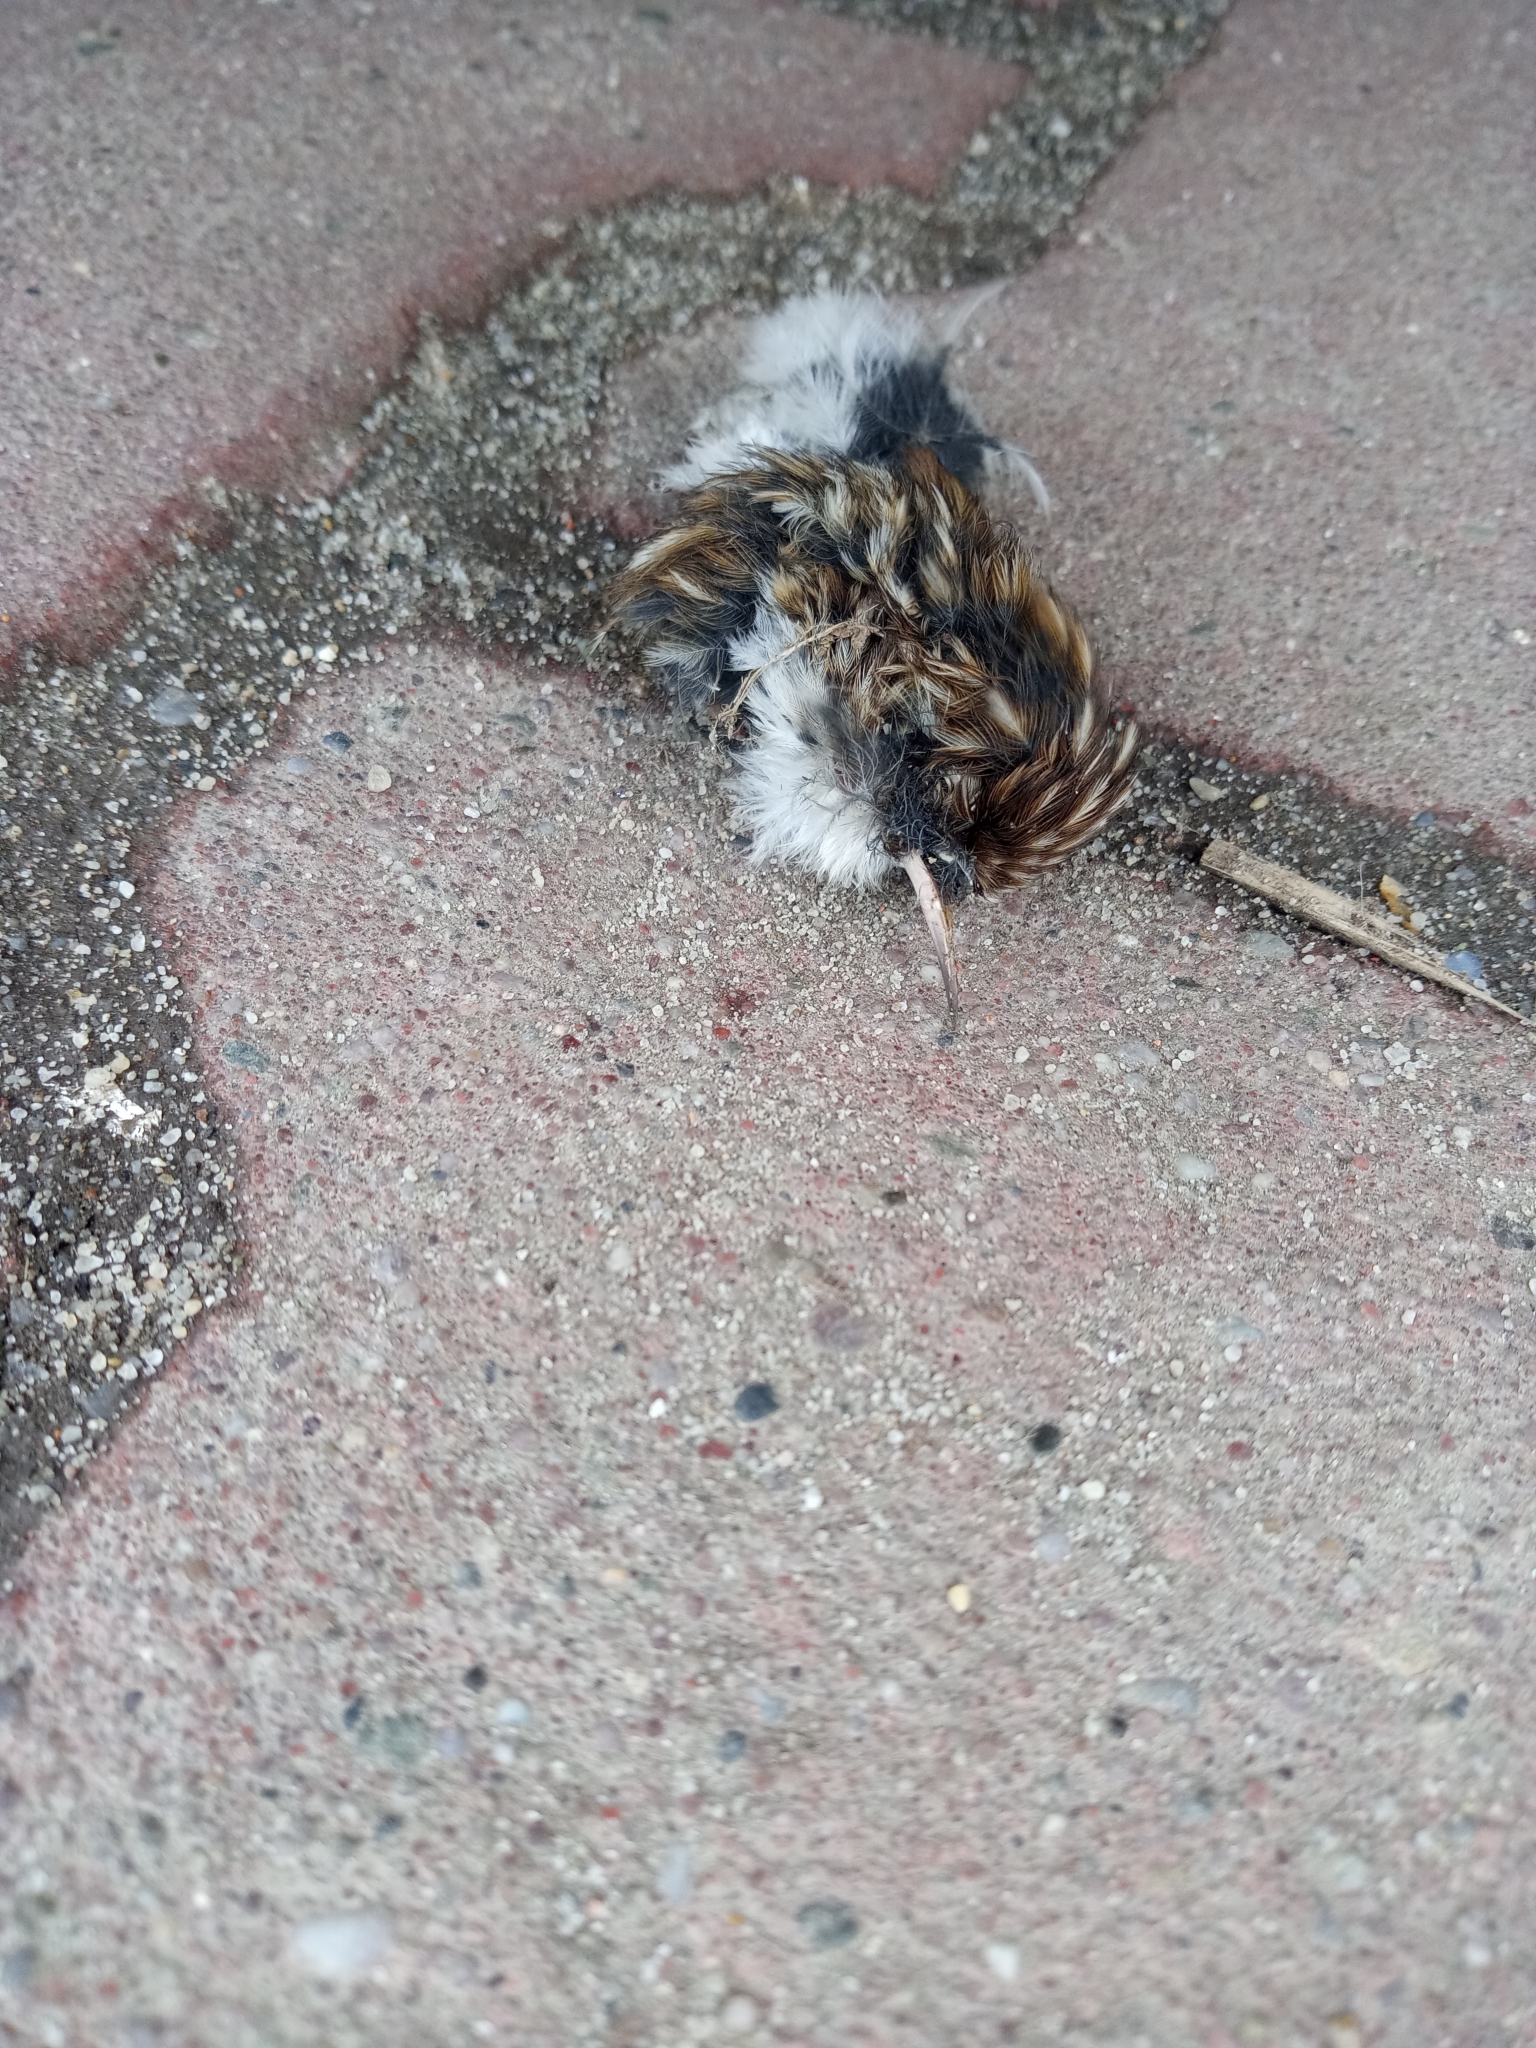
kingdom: Animalia
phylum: Chordata
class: Aves
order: Passeriformes
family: Certhiidae
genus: Certhia
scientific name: Certhia
